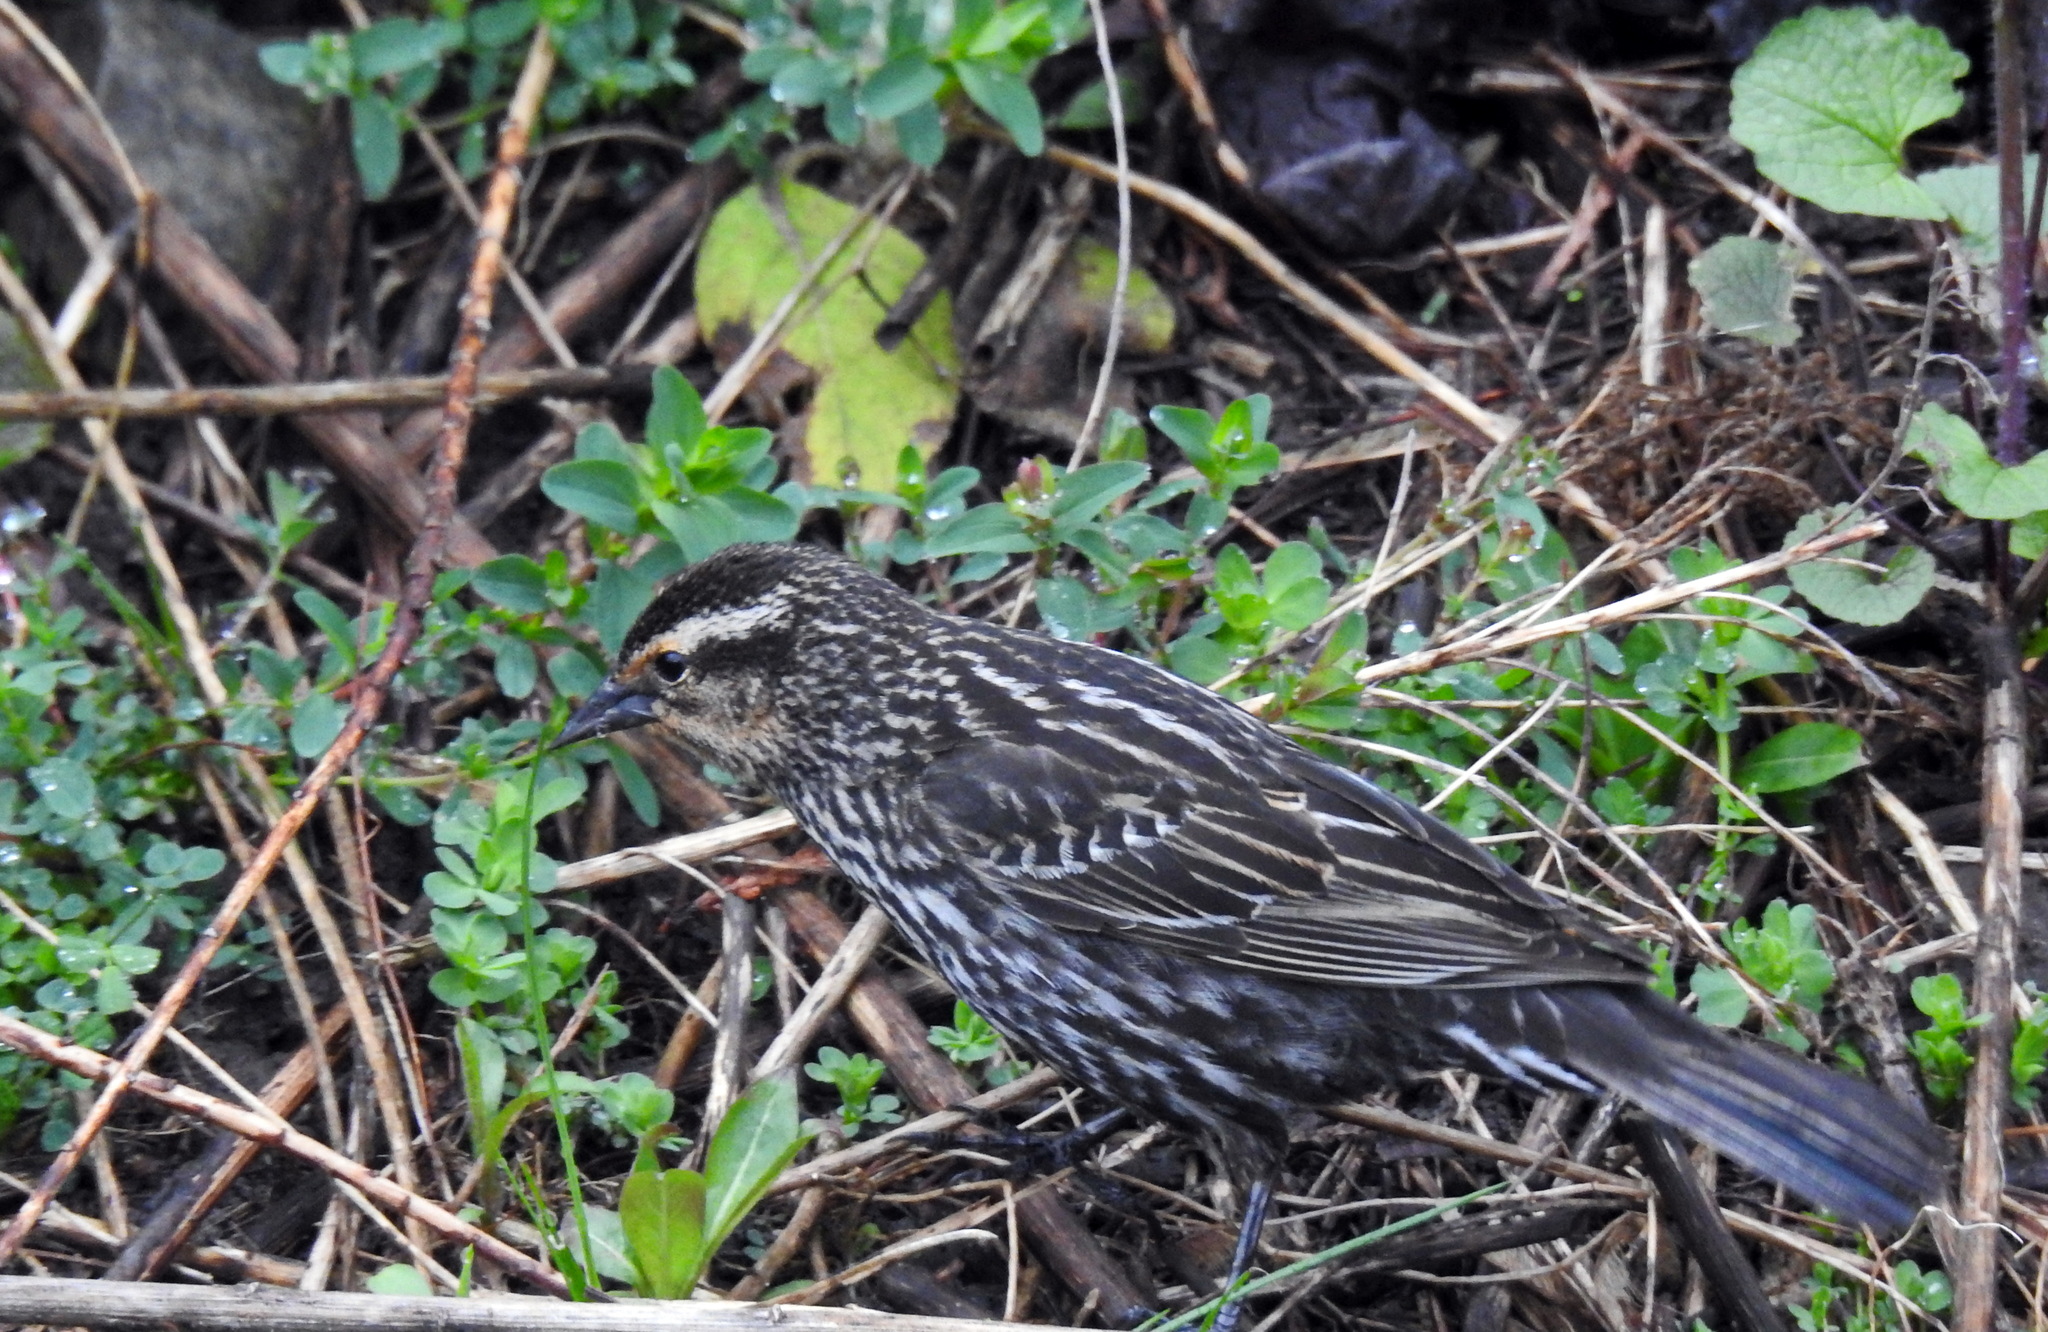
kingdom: Animalia
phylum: Chordata
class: Aves
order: Passeriformes
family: Icteridae
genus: Agelaius
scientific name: Agelaius phoeniceus
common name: Red-winged blackbird
